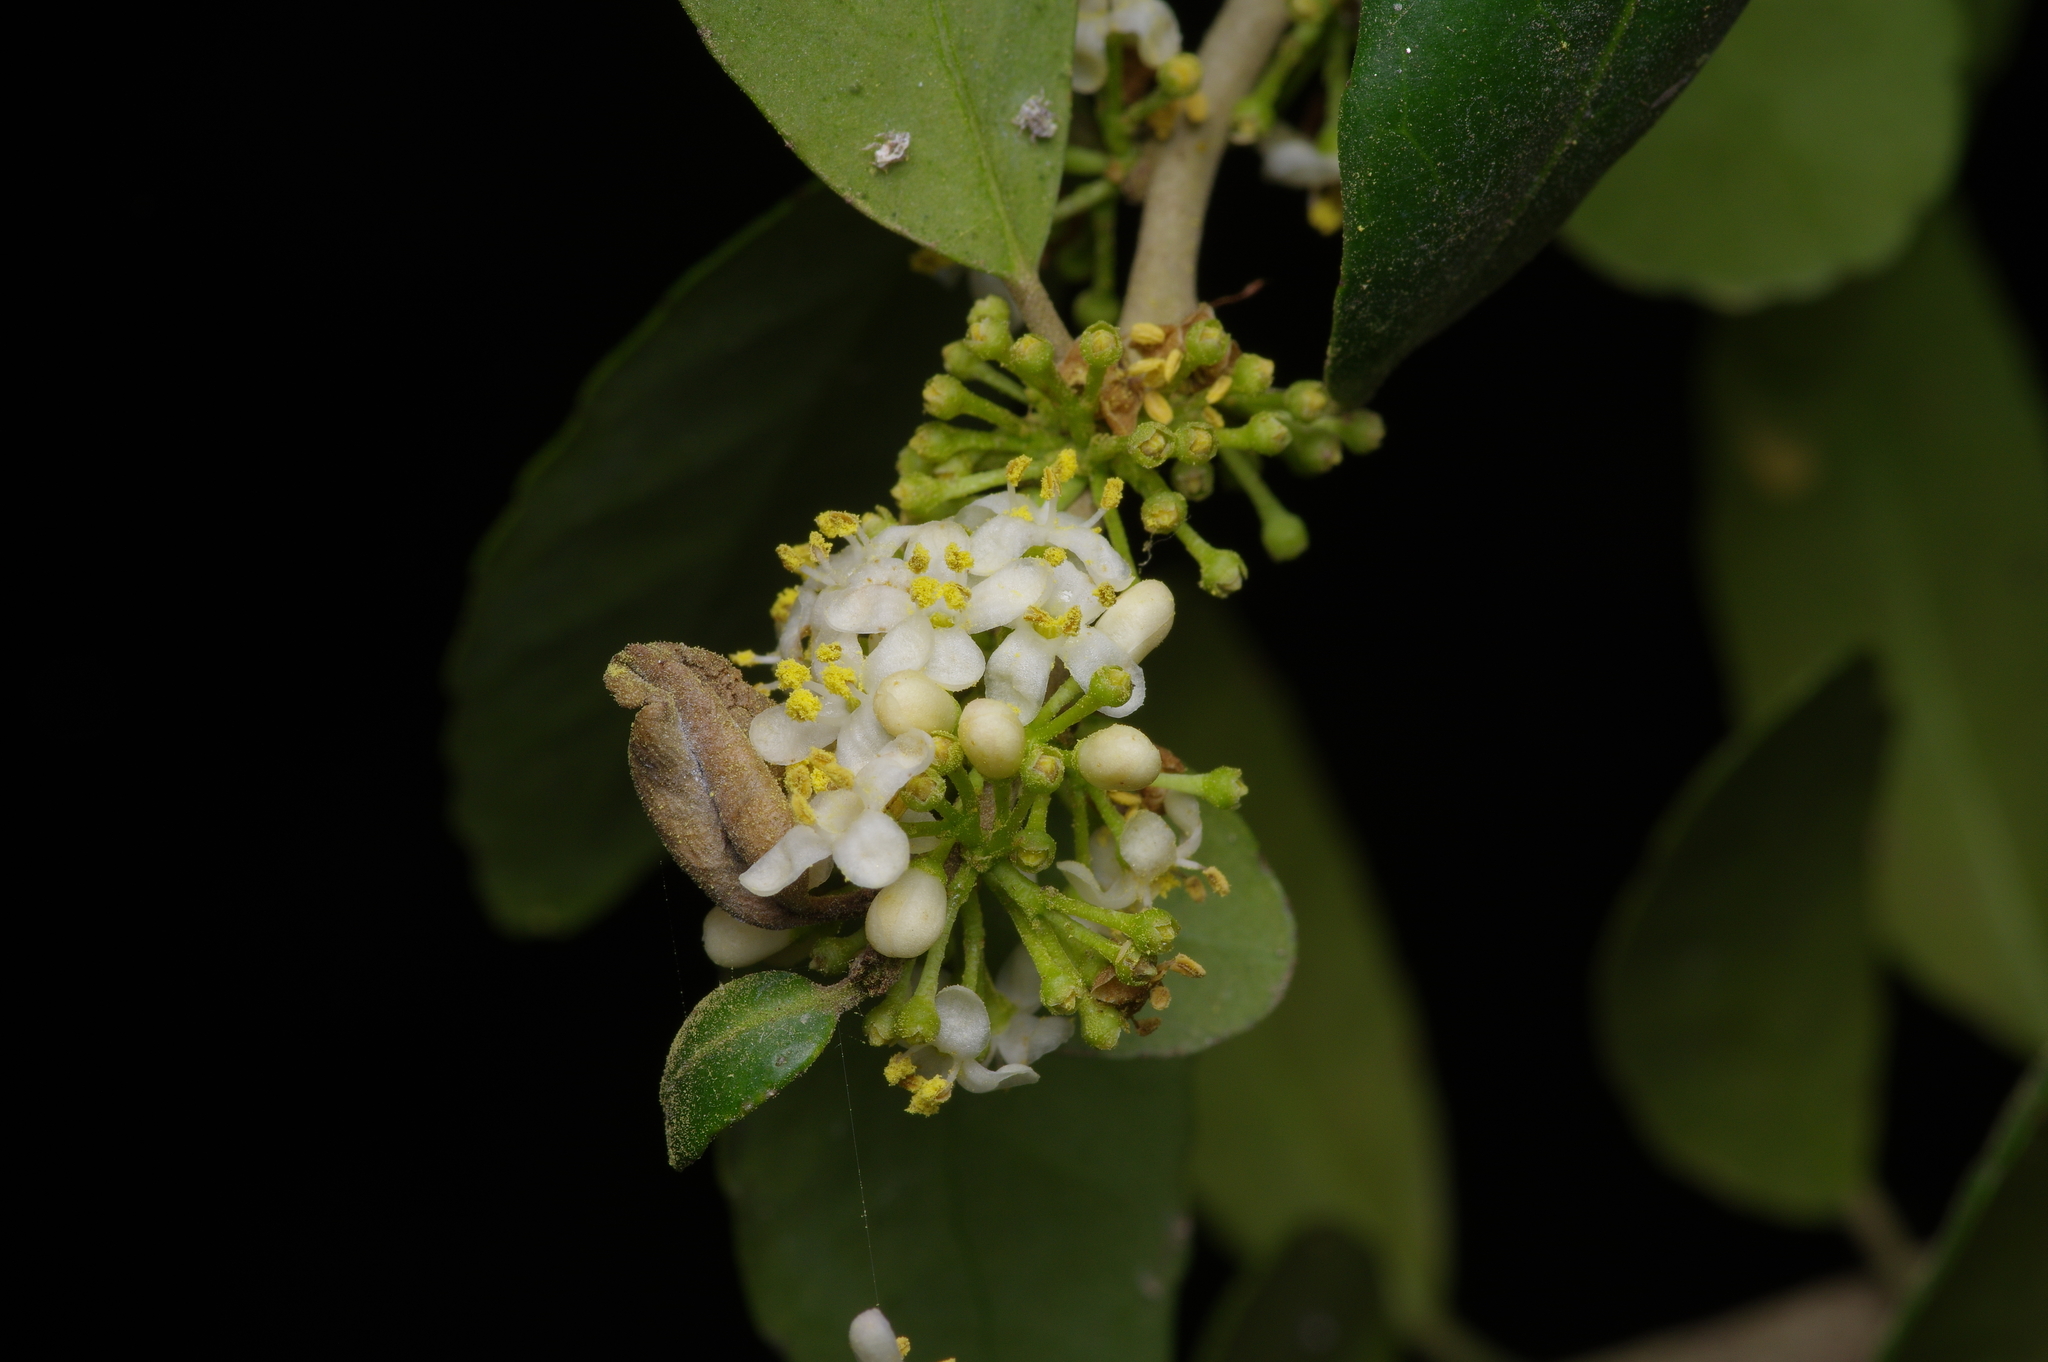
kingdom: Plantae
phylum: Tracheophyta
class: Magnoliopsida
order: Aquifoliales
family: Aquifoliaceae
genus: Ilex
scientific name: Ilex vomitoria
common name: Yaupon holly
